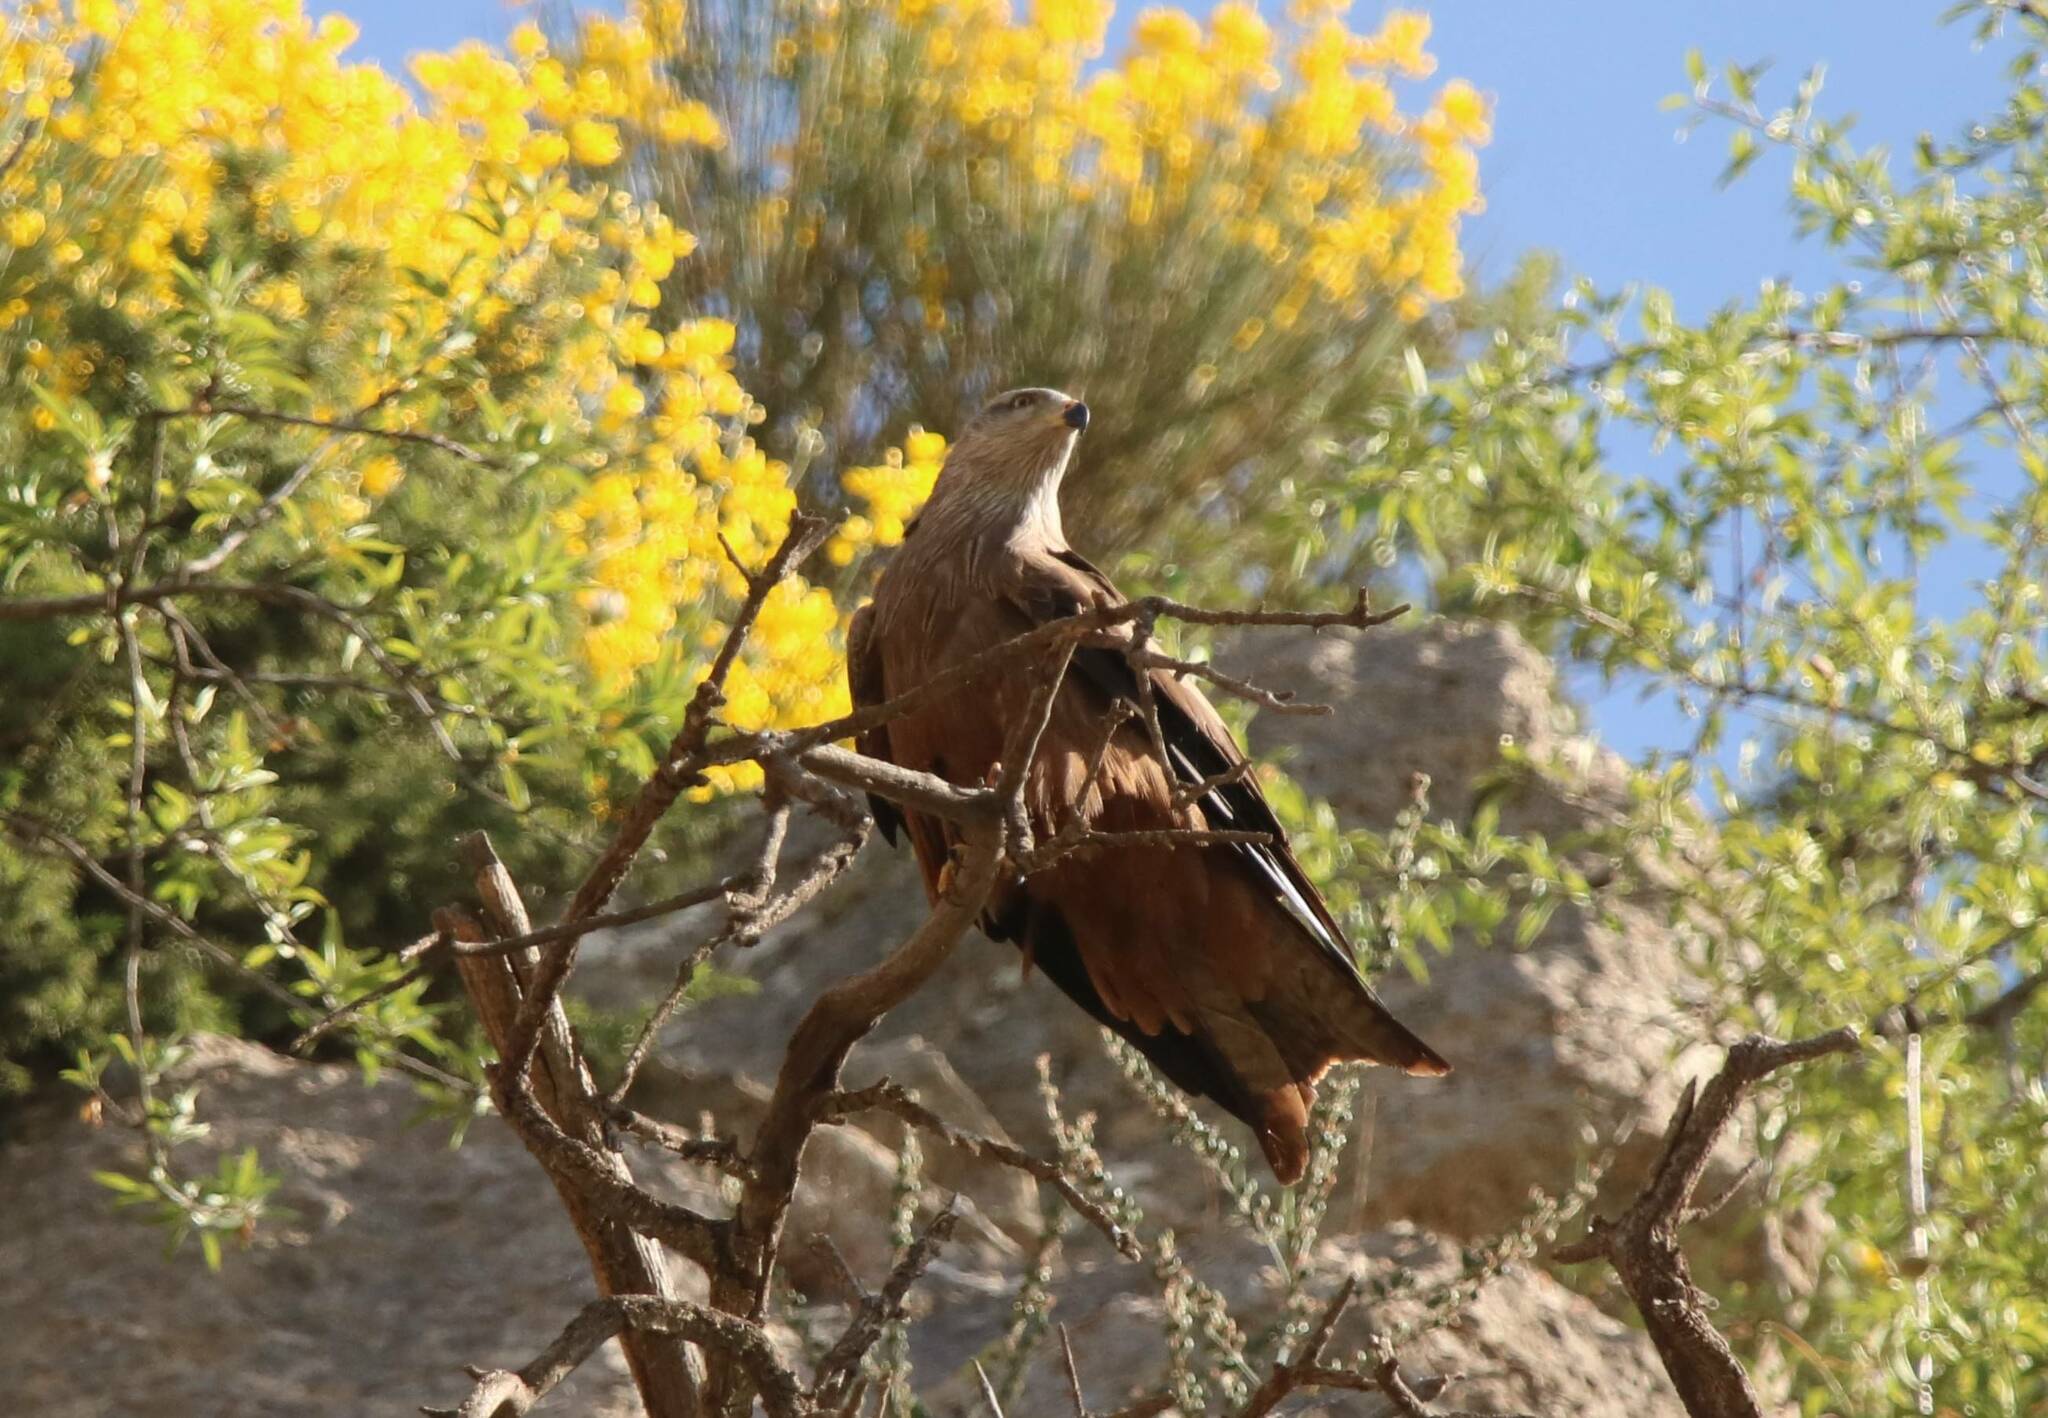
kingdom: Animalia
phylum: Chordata
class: Aves
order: Accipitriformes
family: Accipitridae
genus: Milvus
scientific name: Milvus migrans
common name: Black kite
